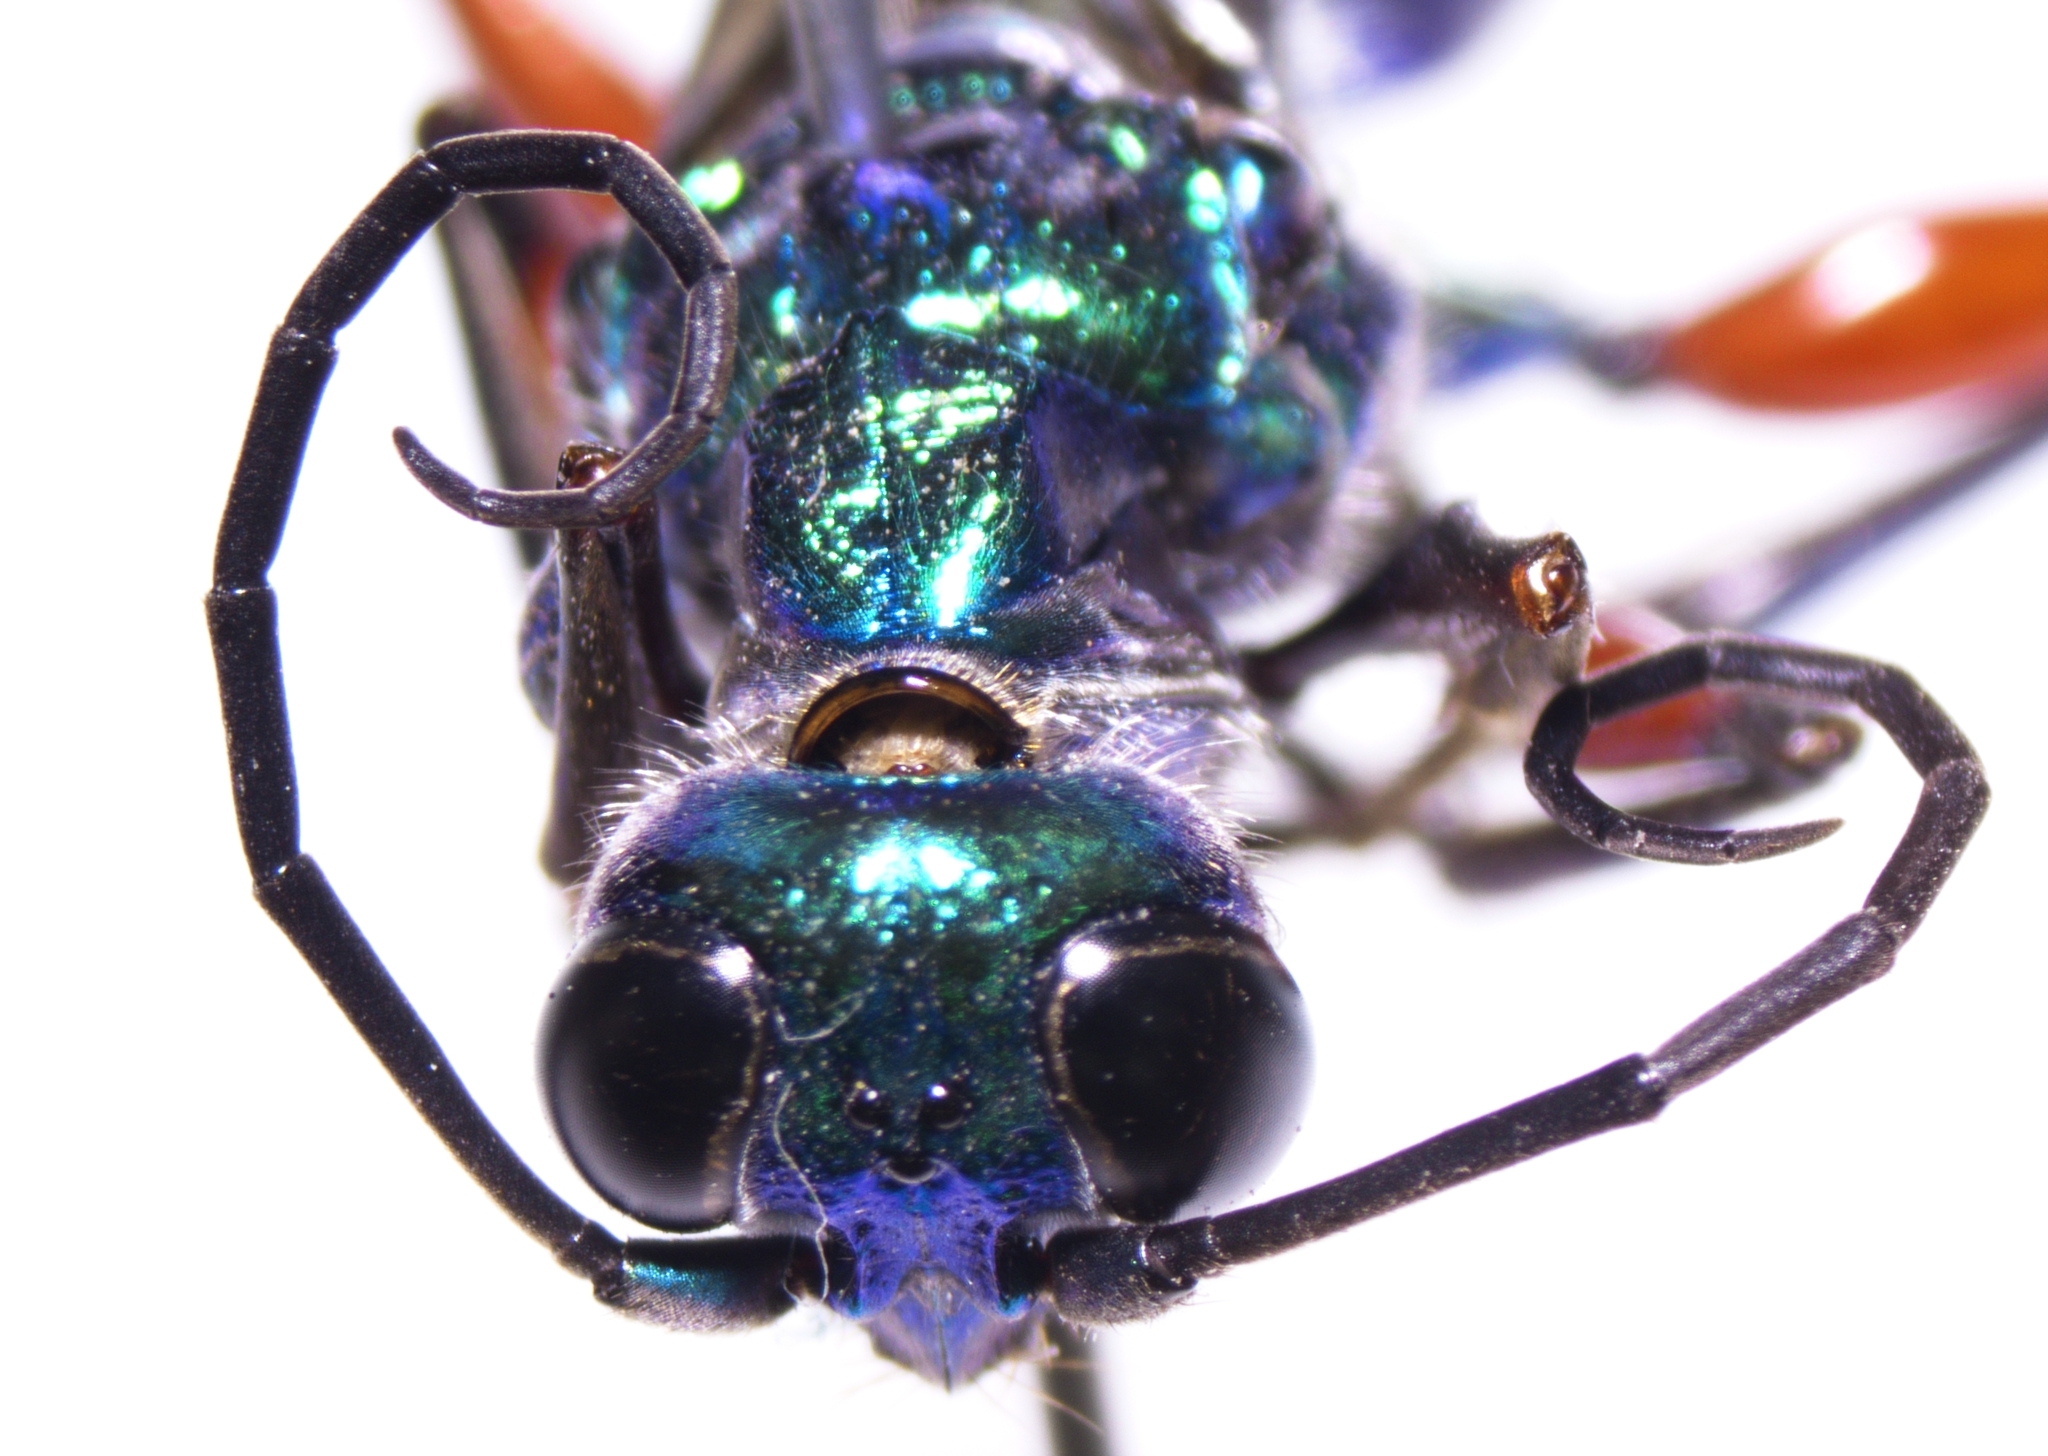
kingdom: Animalia
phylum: Arthropoda
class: Insecta
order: Hymenoptera
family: Ampulicidae
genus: Ampulex
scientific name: Ampulex compressa
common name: Emerald cockroach wasp
